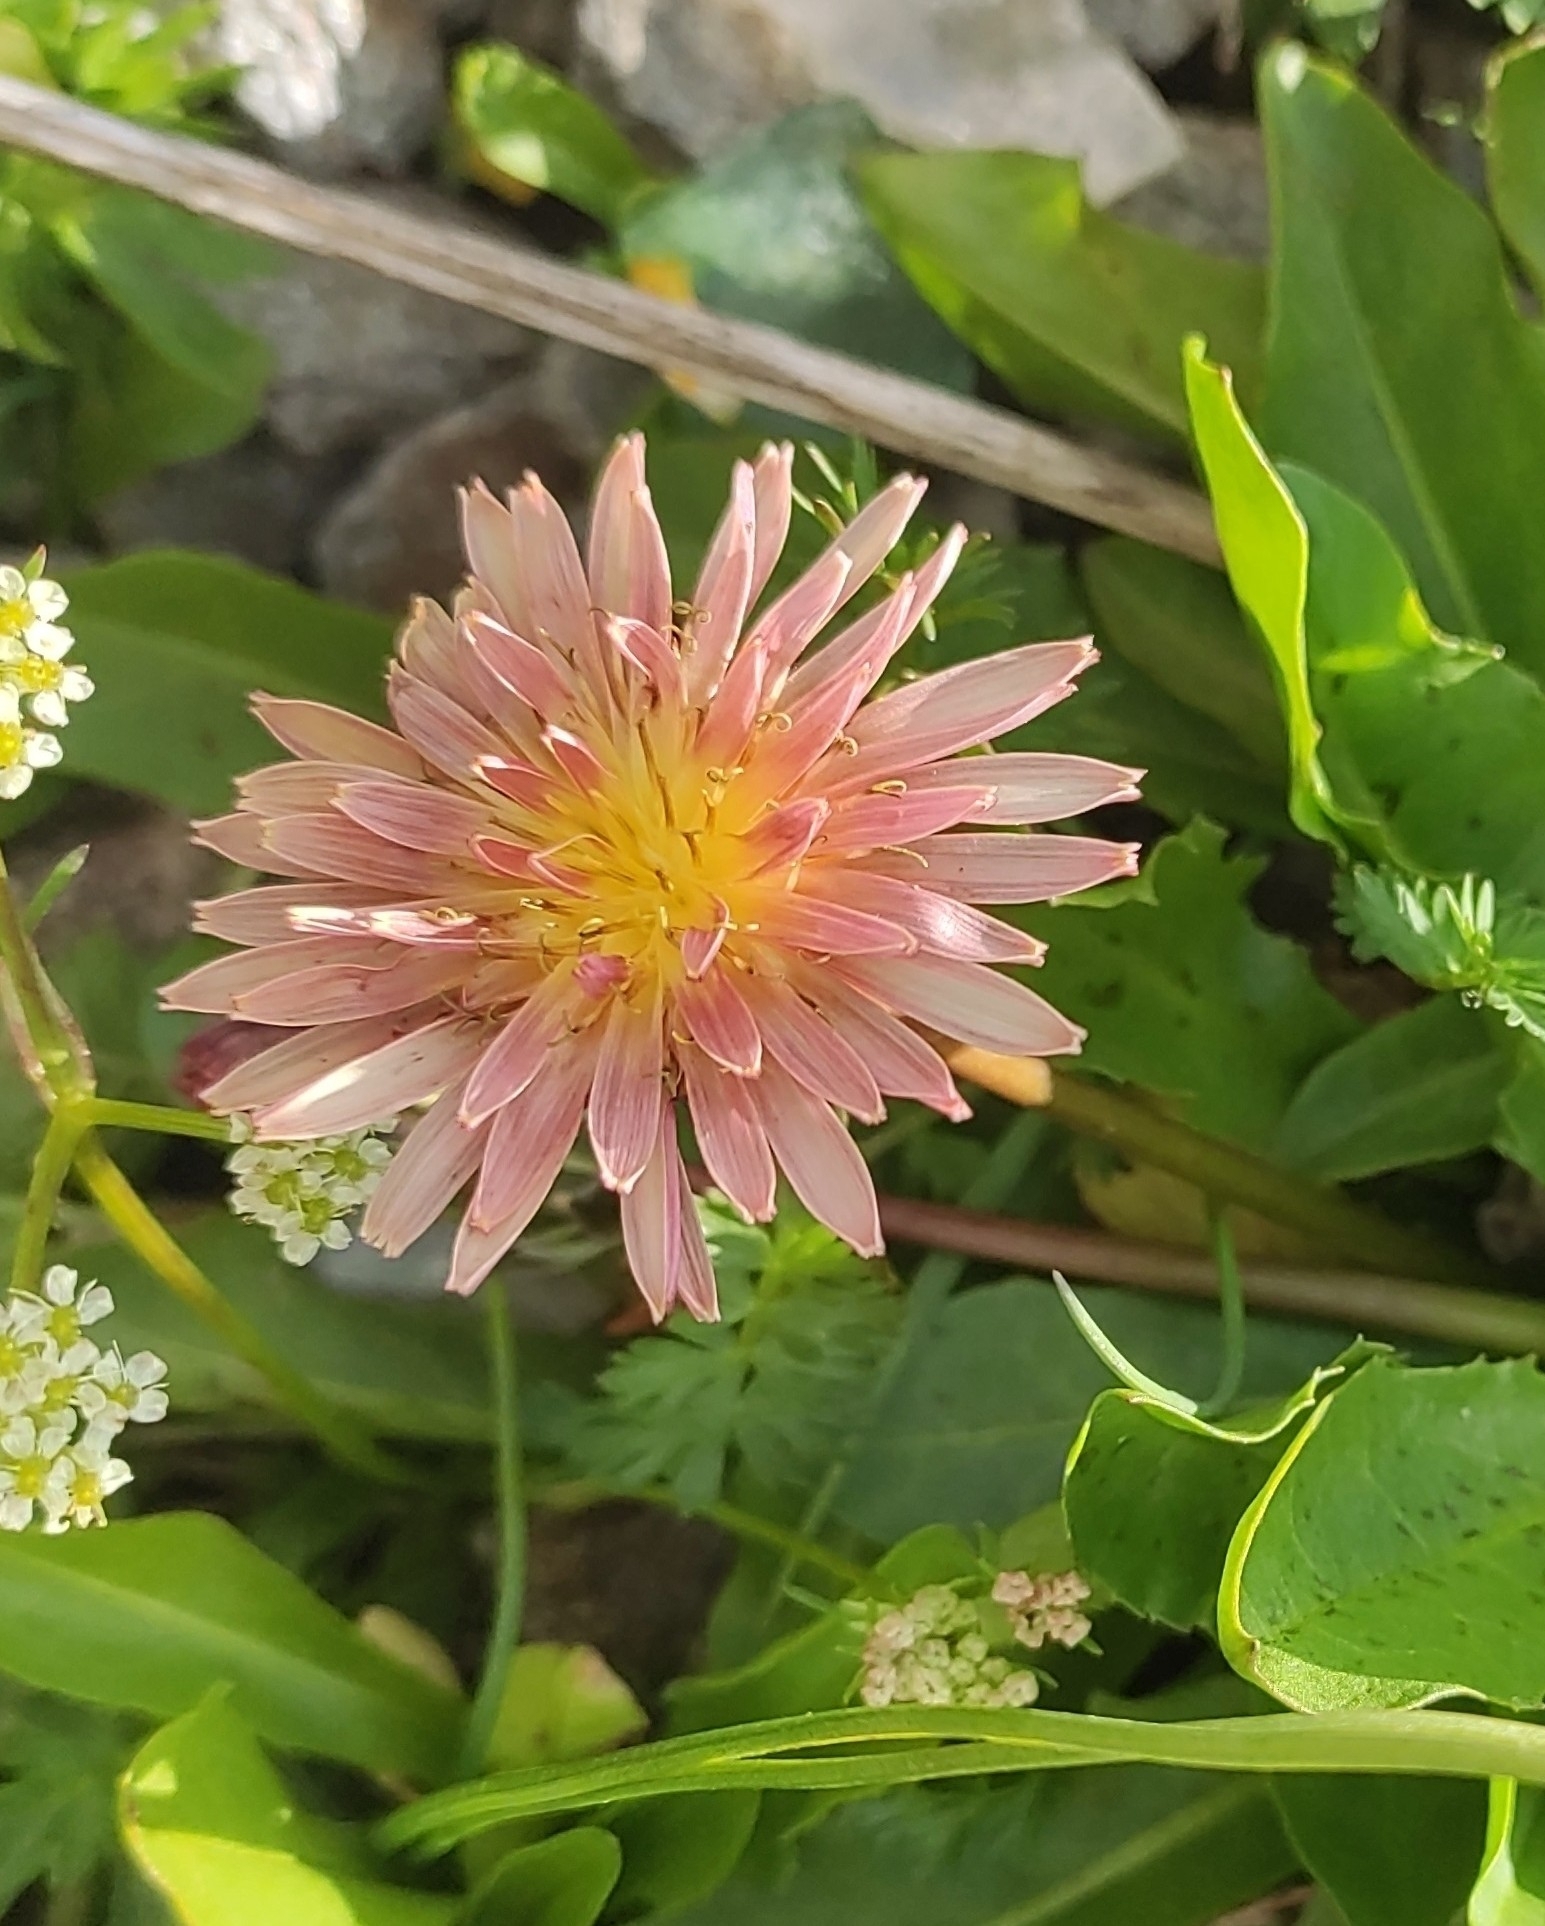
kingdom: Plantae
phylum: Tracheophyta
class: Magnoliopsida
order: Asterales
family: Asteraceae
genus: Taraxacum
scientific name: Taraxacum porphyranthum
